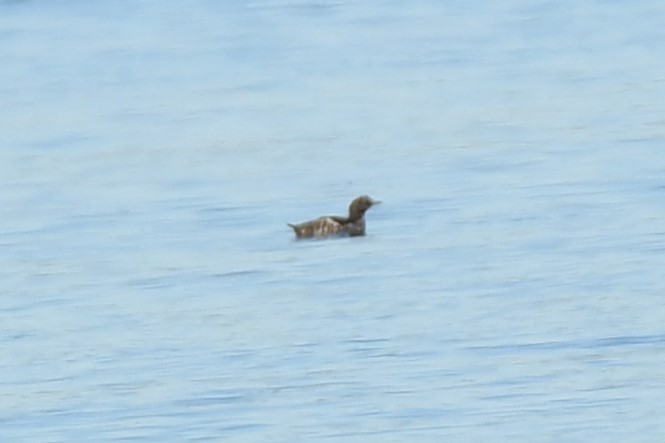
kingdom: Animalia
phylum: Chordata
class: Aves
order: Charadriiformes
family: Alcidae
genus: Cepphus
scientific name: Cepphus columba
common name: Pigeon guillemot
